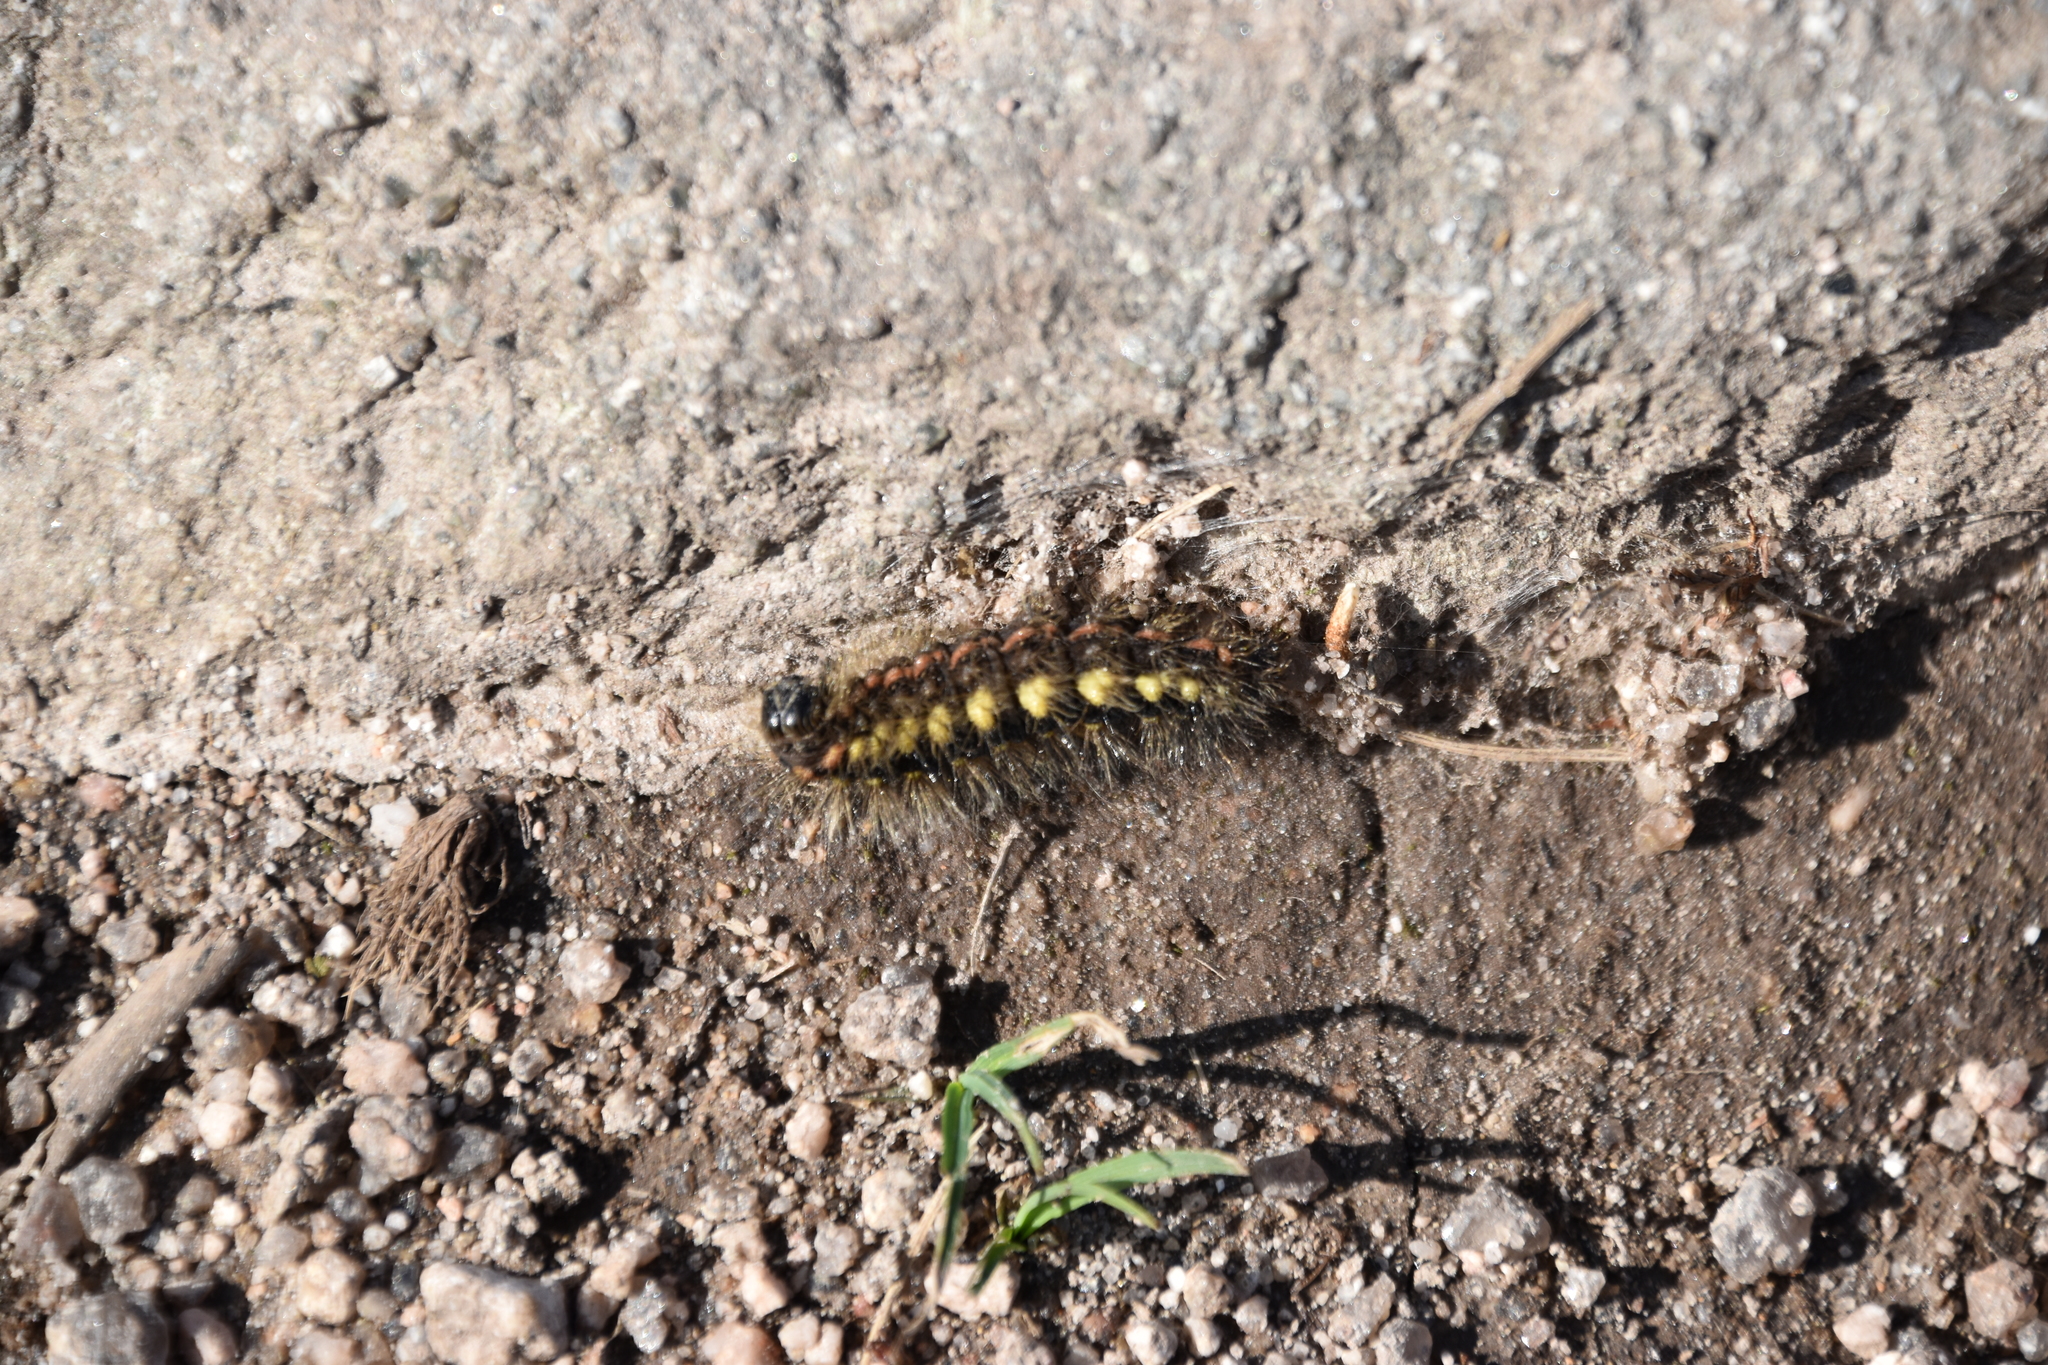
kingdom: Animalia
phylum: Arthropoda
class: Insecta
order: Lepidoptera
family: Noctuidae
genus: Acronicta
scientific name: Acronicta euphorbiae
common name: Sweet gale moth
